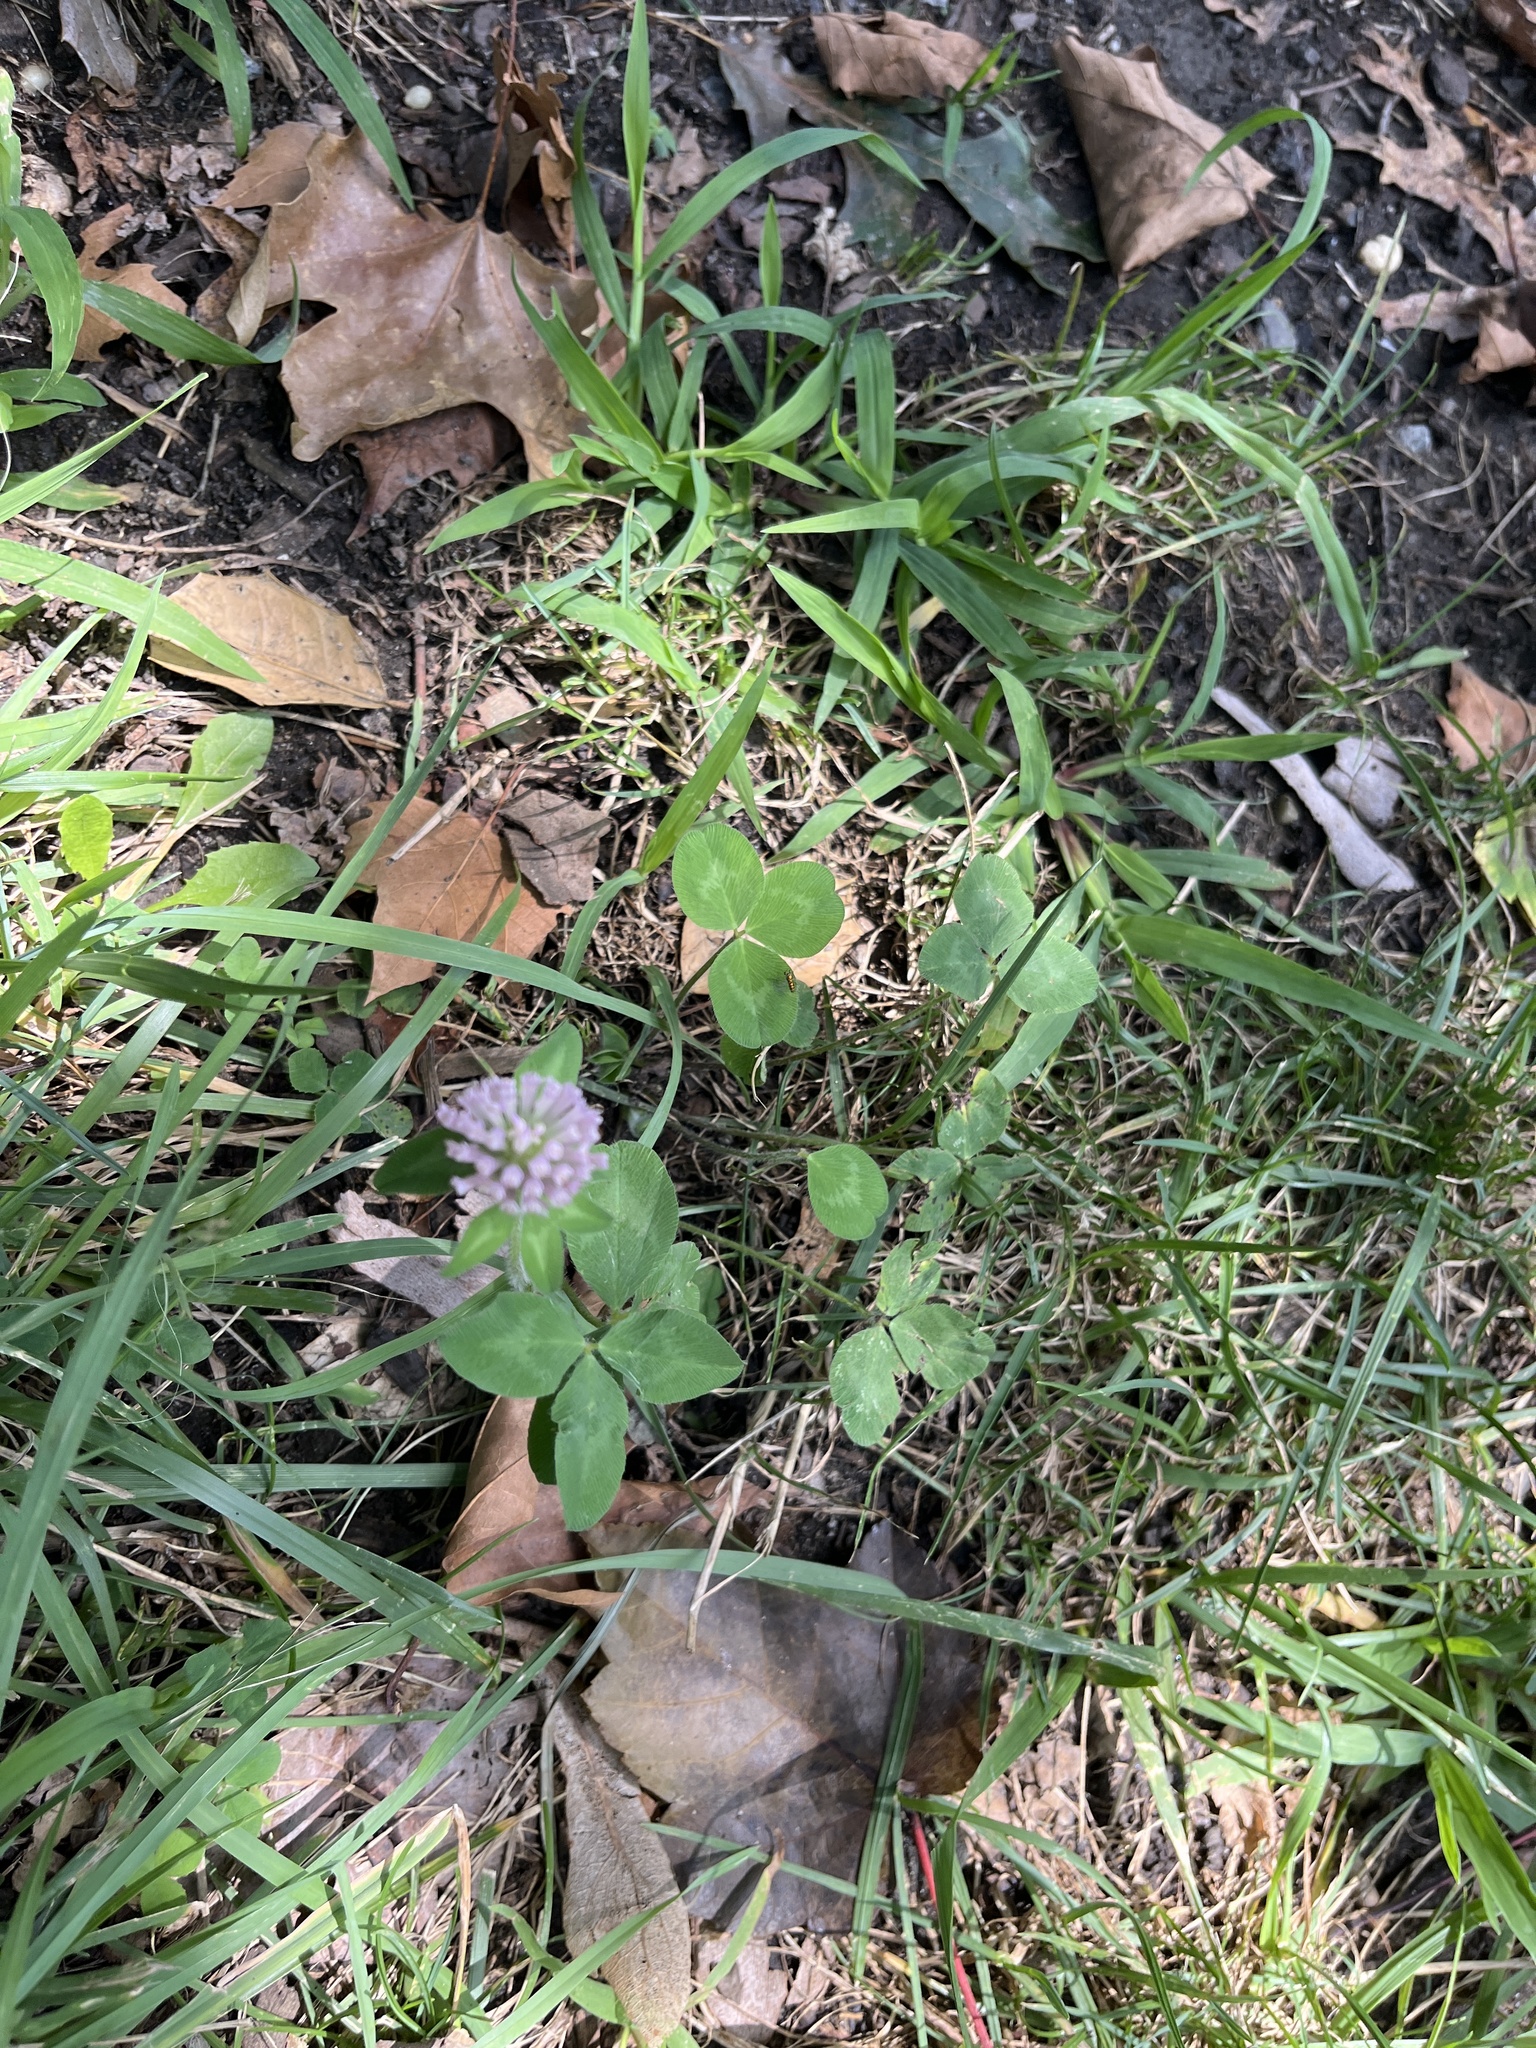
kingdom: Plantae
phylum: Tracheophyta
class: Magnoliopsida
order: Fabales
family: Fabaceae
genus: Trifolium
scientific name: Trifolium pratense
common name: Red clover
